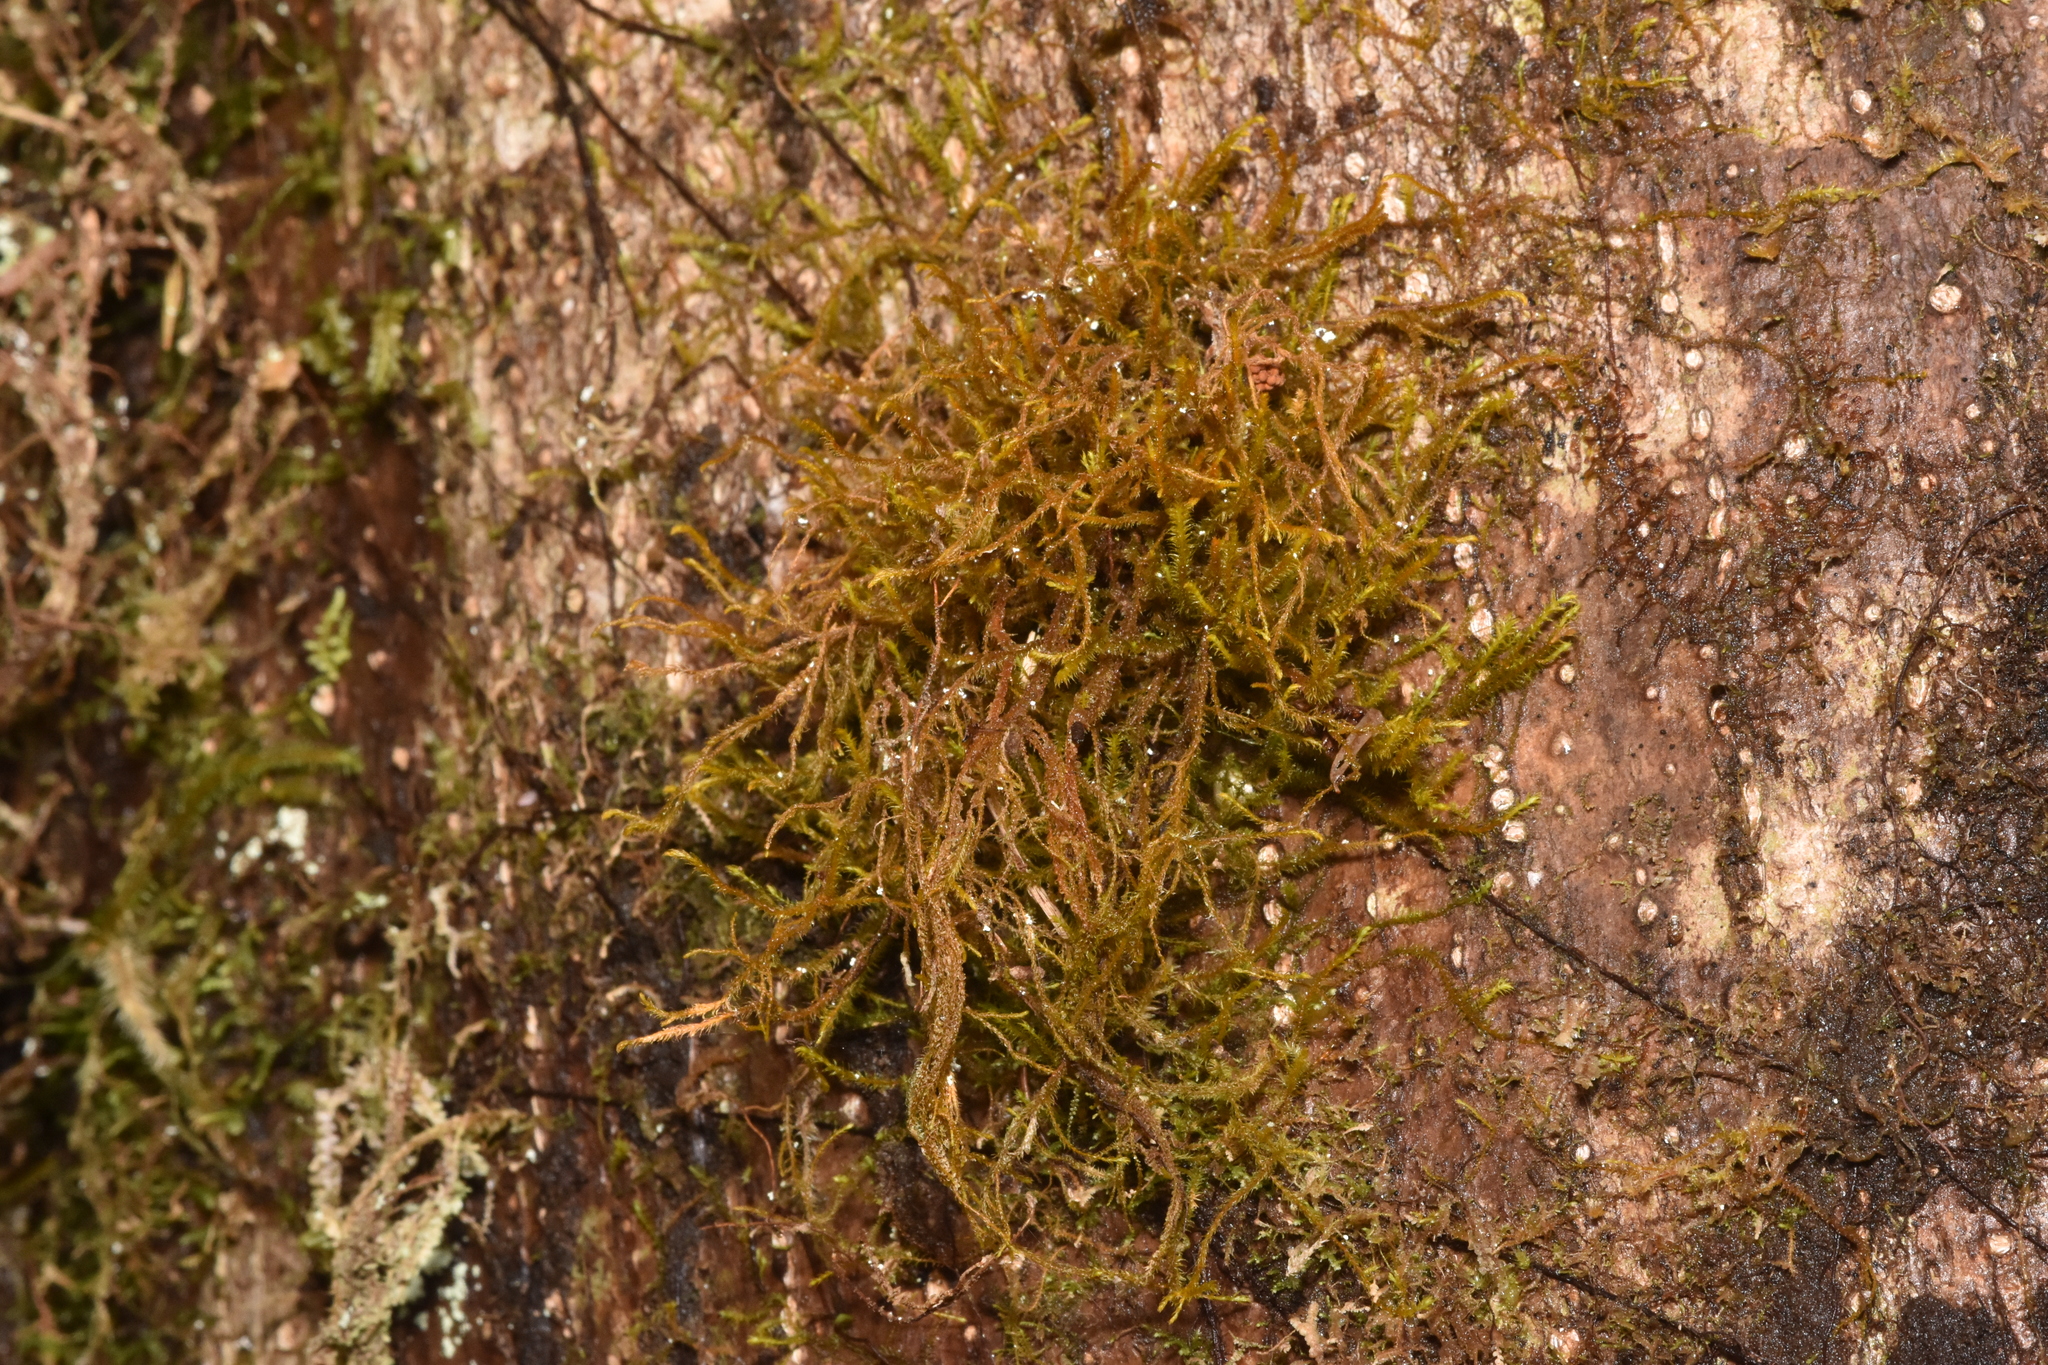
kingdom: Plantae
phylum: Marchantiophyta
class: Jungermanniopsida
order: Jungermanniales
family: Herbertaceae
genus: Herbertus
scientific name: Herbertus aduncus
